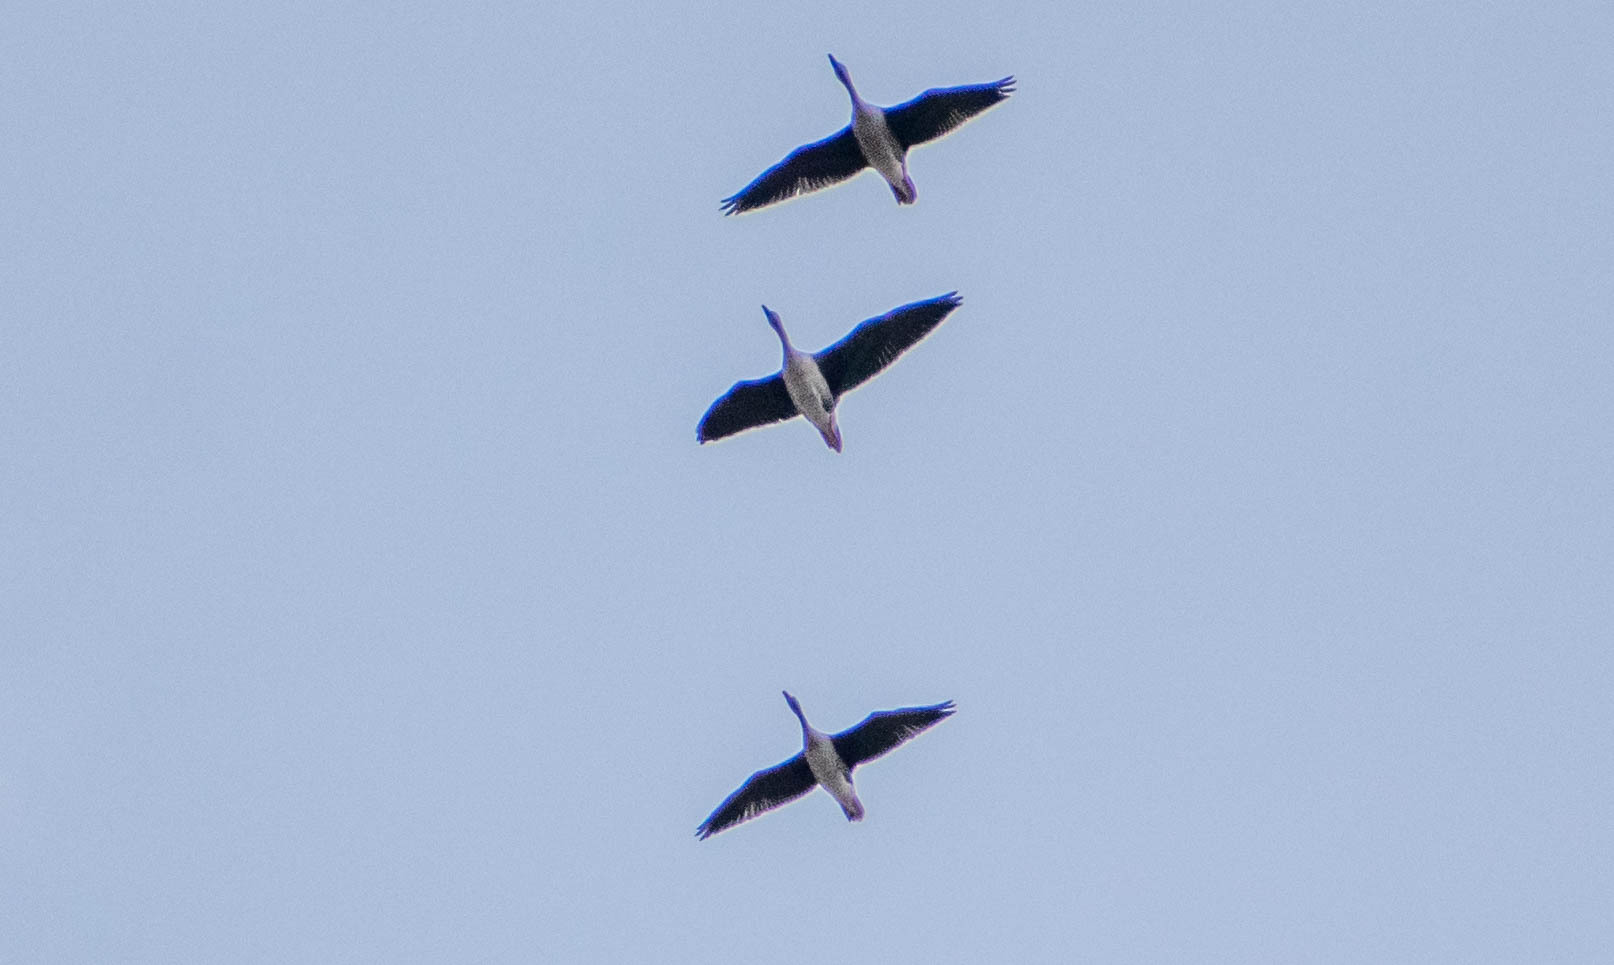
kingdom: Animalia
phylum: Chordata
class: Aves
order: Anseriformes
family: Anatidae
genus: Anser
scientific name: Anser fabalis
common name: Bean goose
